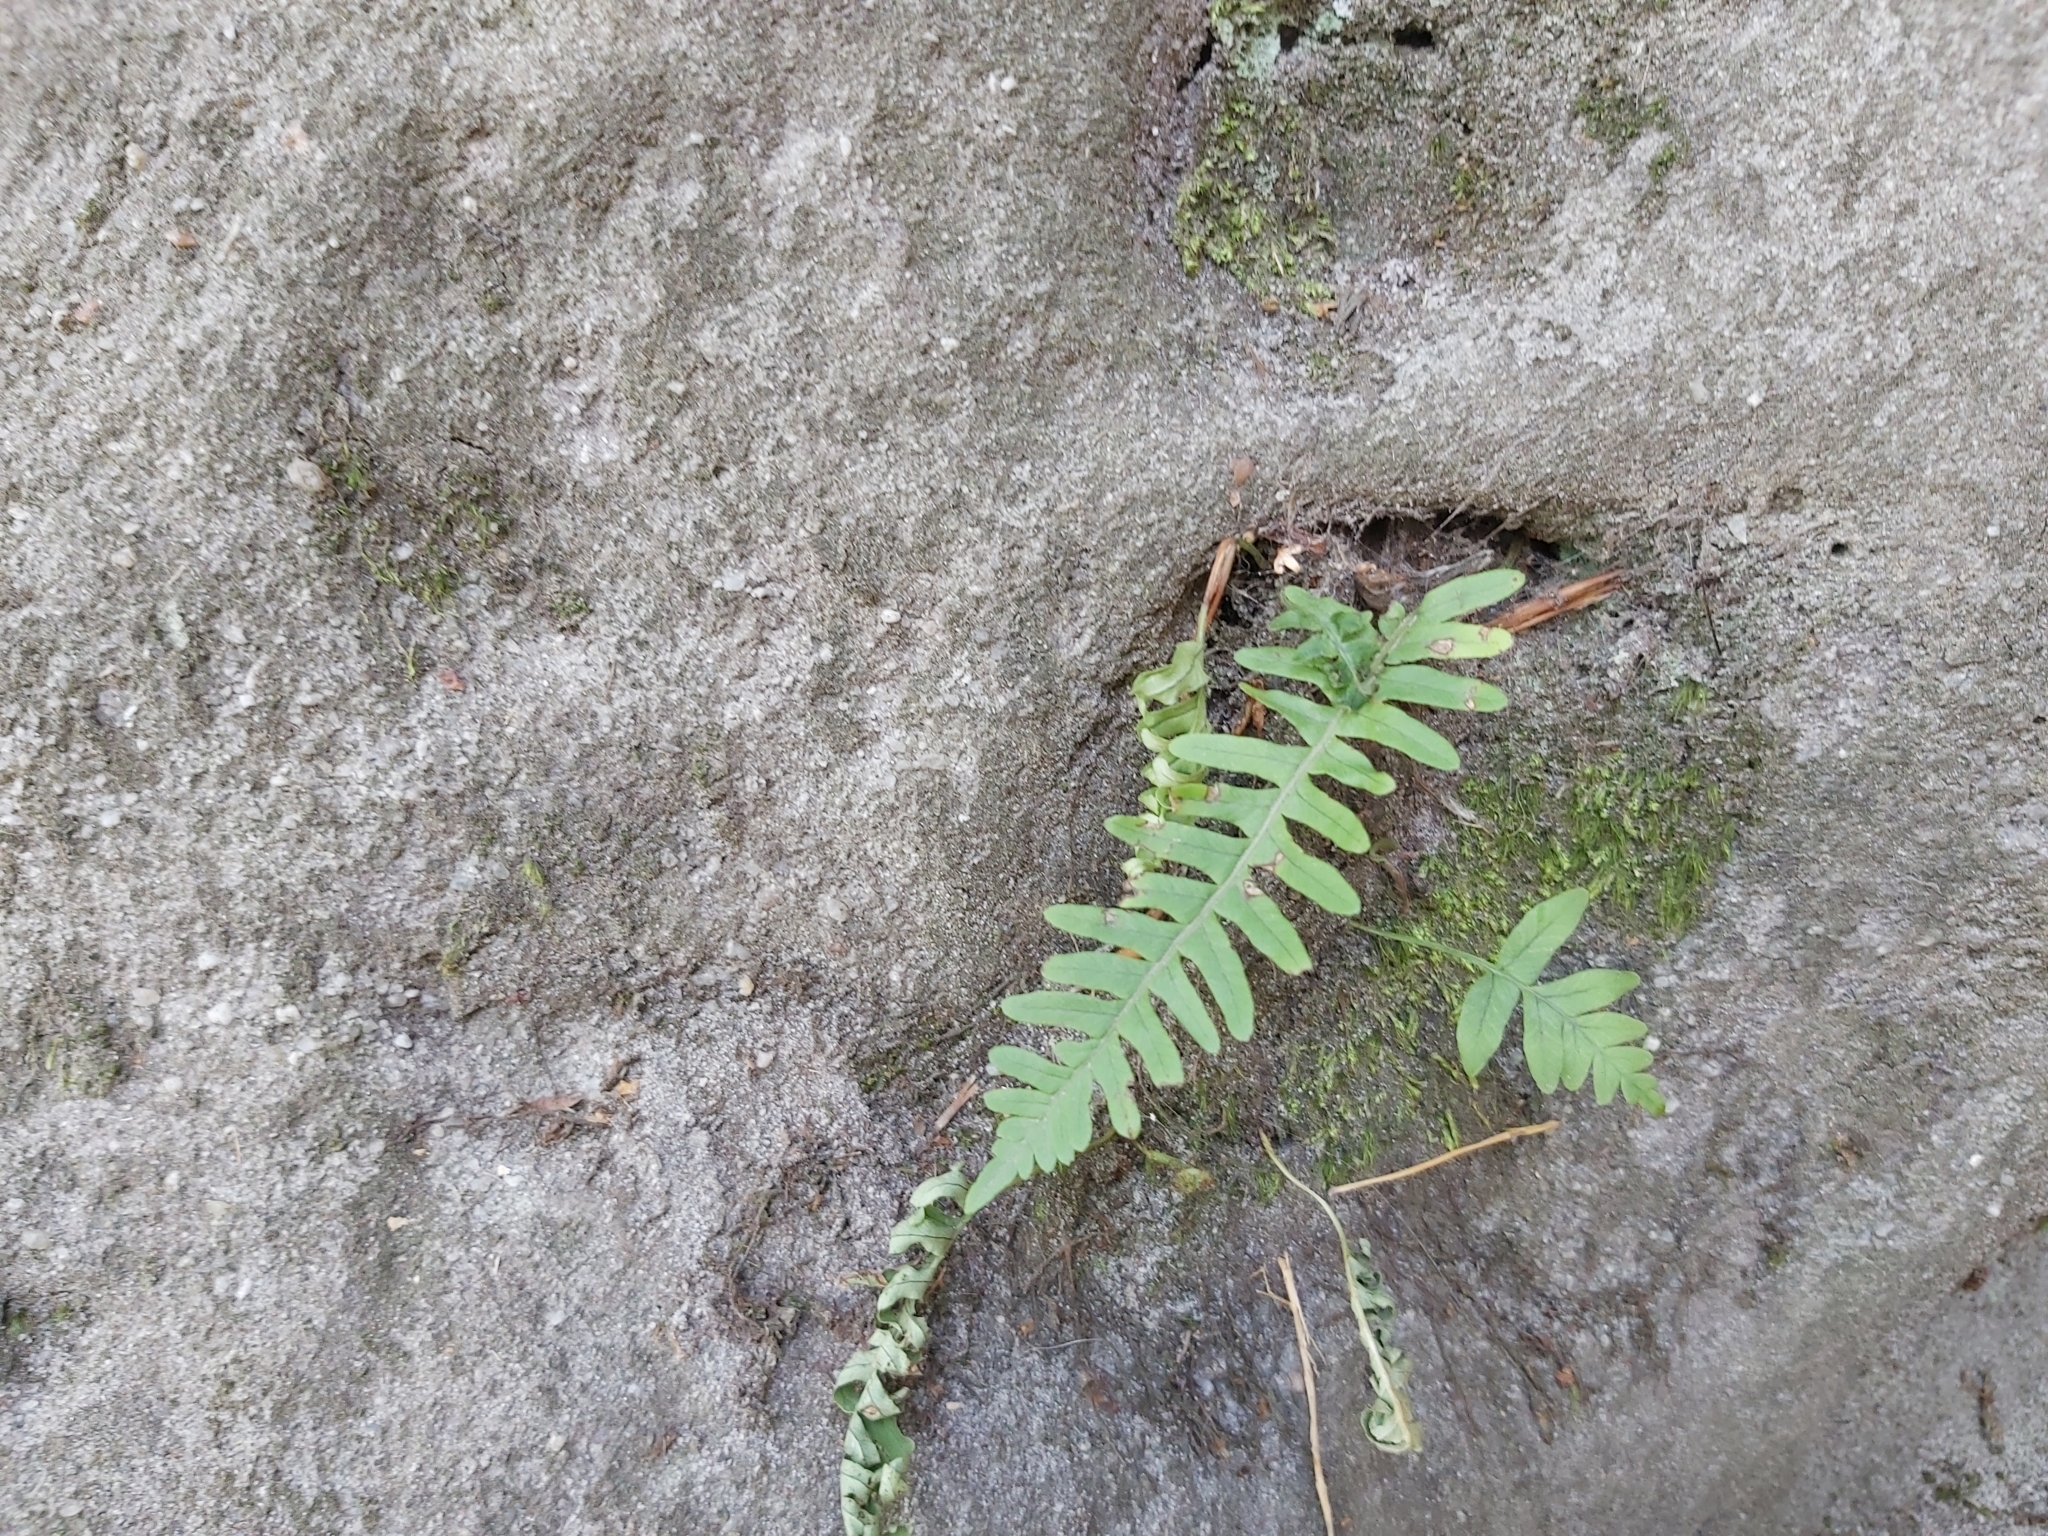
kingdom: Plantae
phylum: Tracheophyta
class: Polypodiopsida
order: Polypodiales
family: Polypodiaceae
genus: Polypodium
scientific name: Polypodium vulgare
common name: Common polypody
